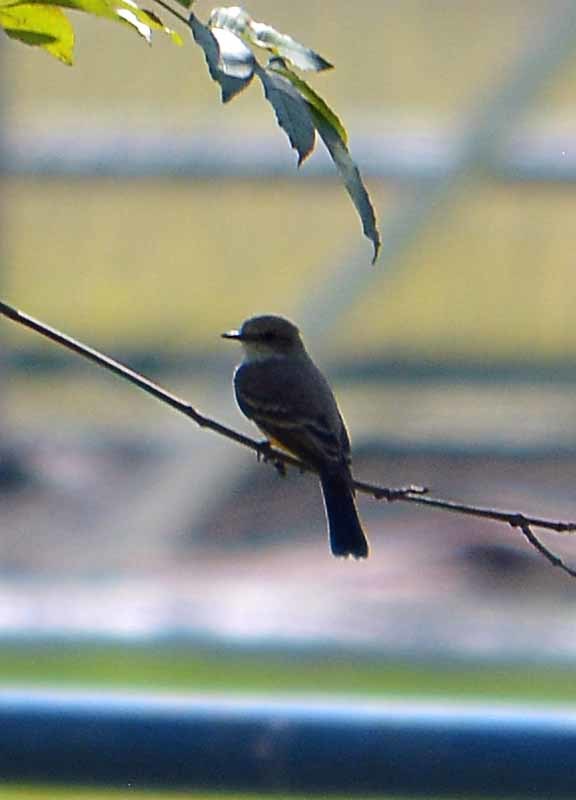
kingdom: Animalia
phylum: Chordata
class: Aves
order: Passeriformes
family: Tyrannidae
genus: Pyrocephalus
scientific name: Pyrocephalus rubinus
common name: Vermilion flycatcher
